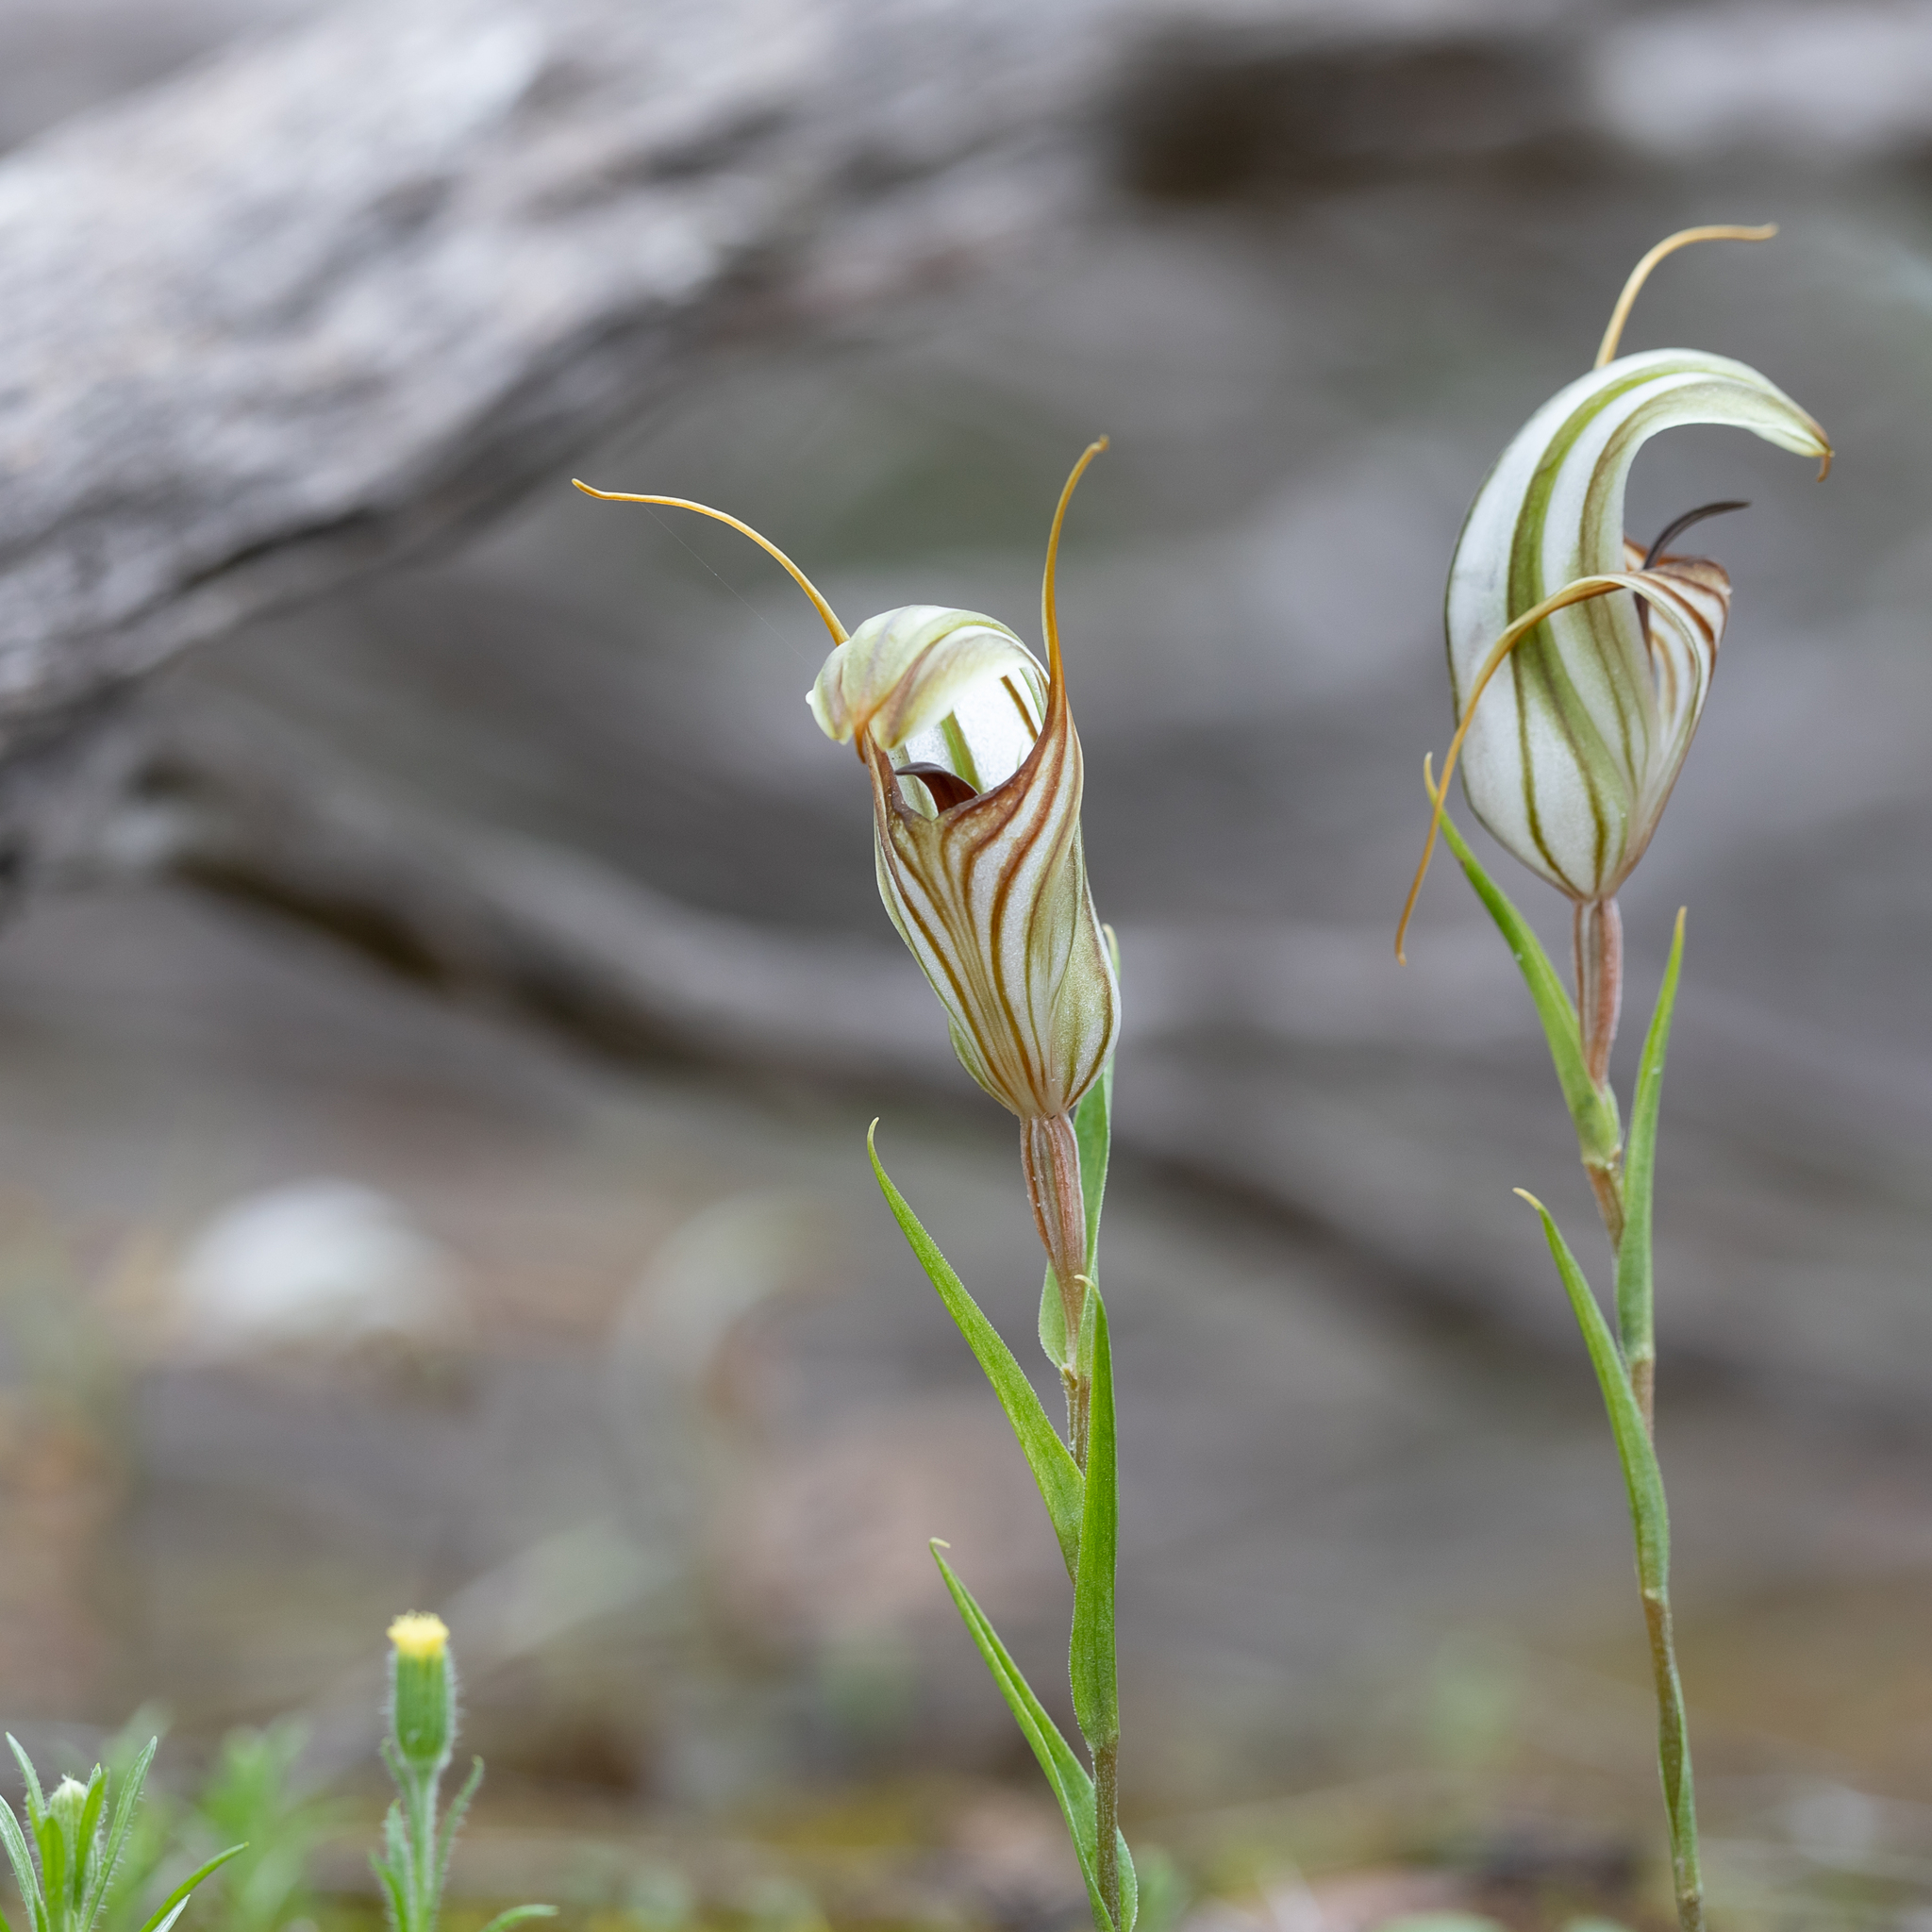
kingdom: Plantae
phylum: Tracheophyta
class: Liliopsida
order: Asparagales
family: Orchidaceae
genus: Pterostylis
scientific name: Pterostylis erythroconcha
